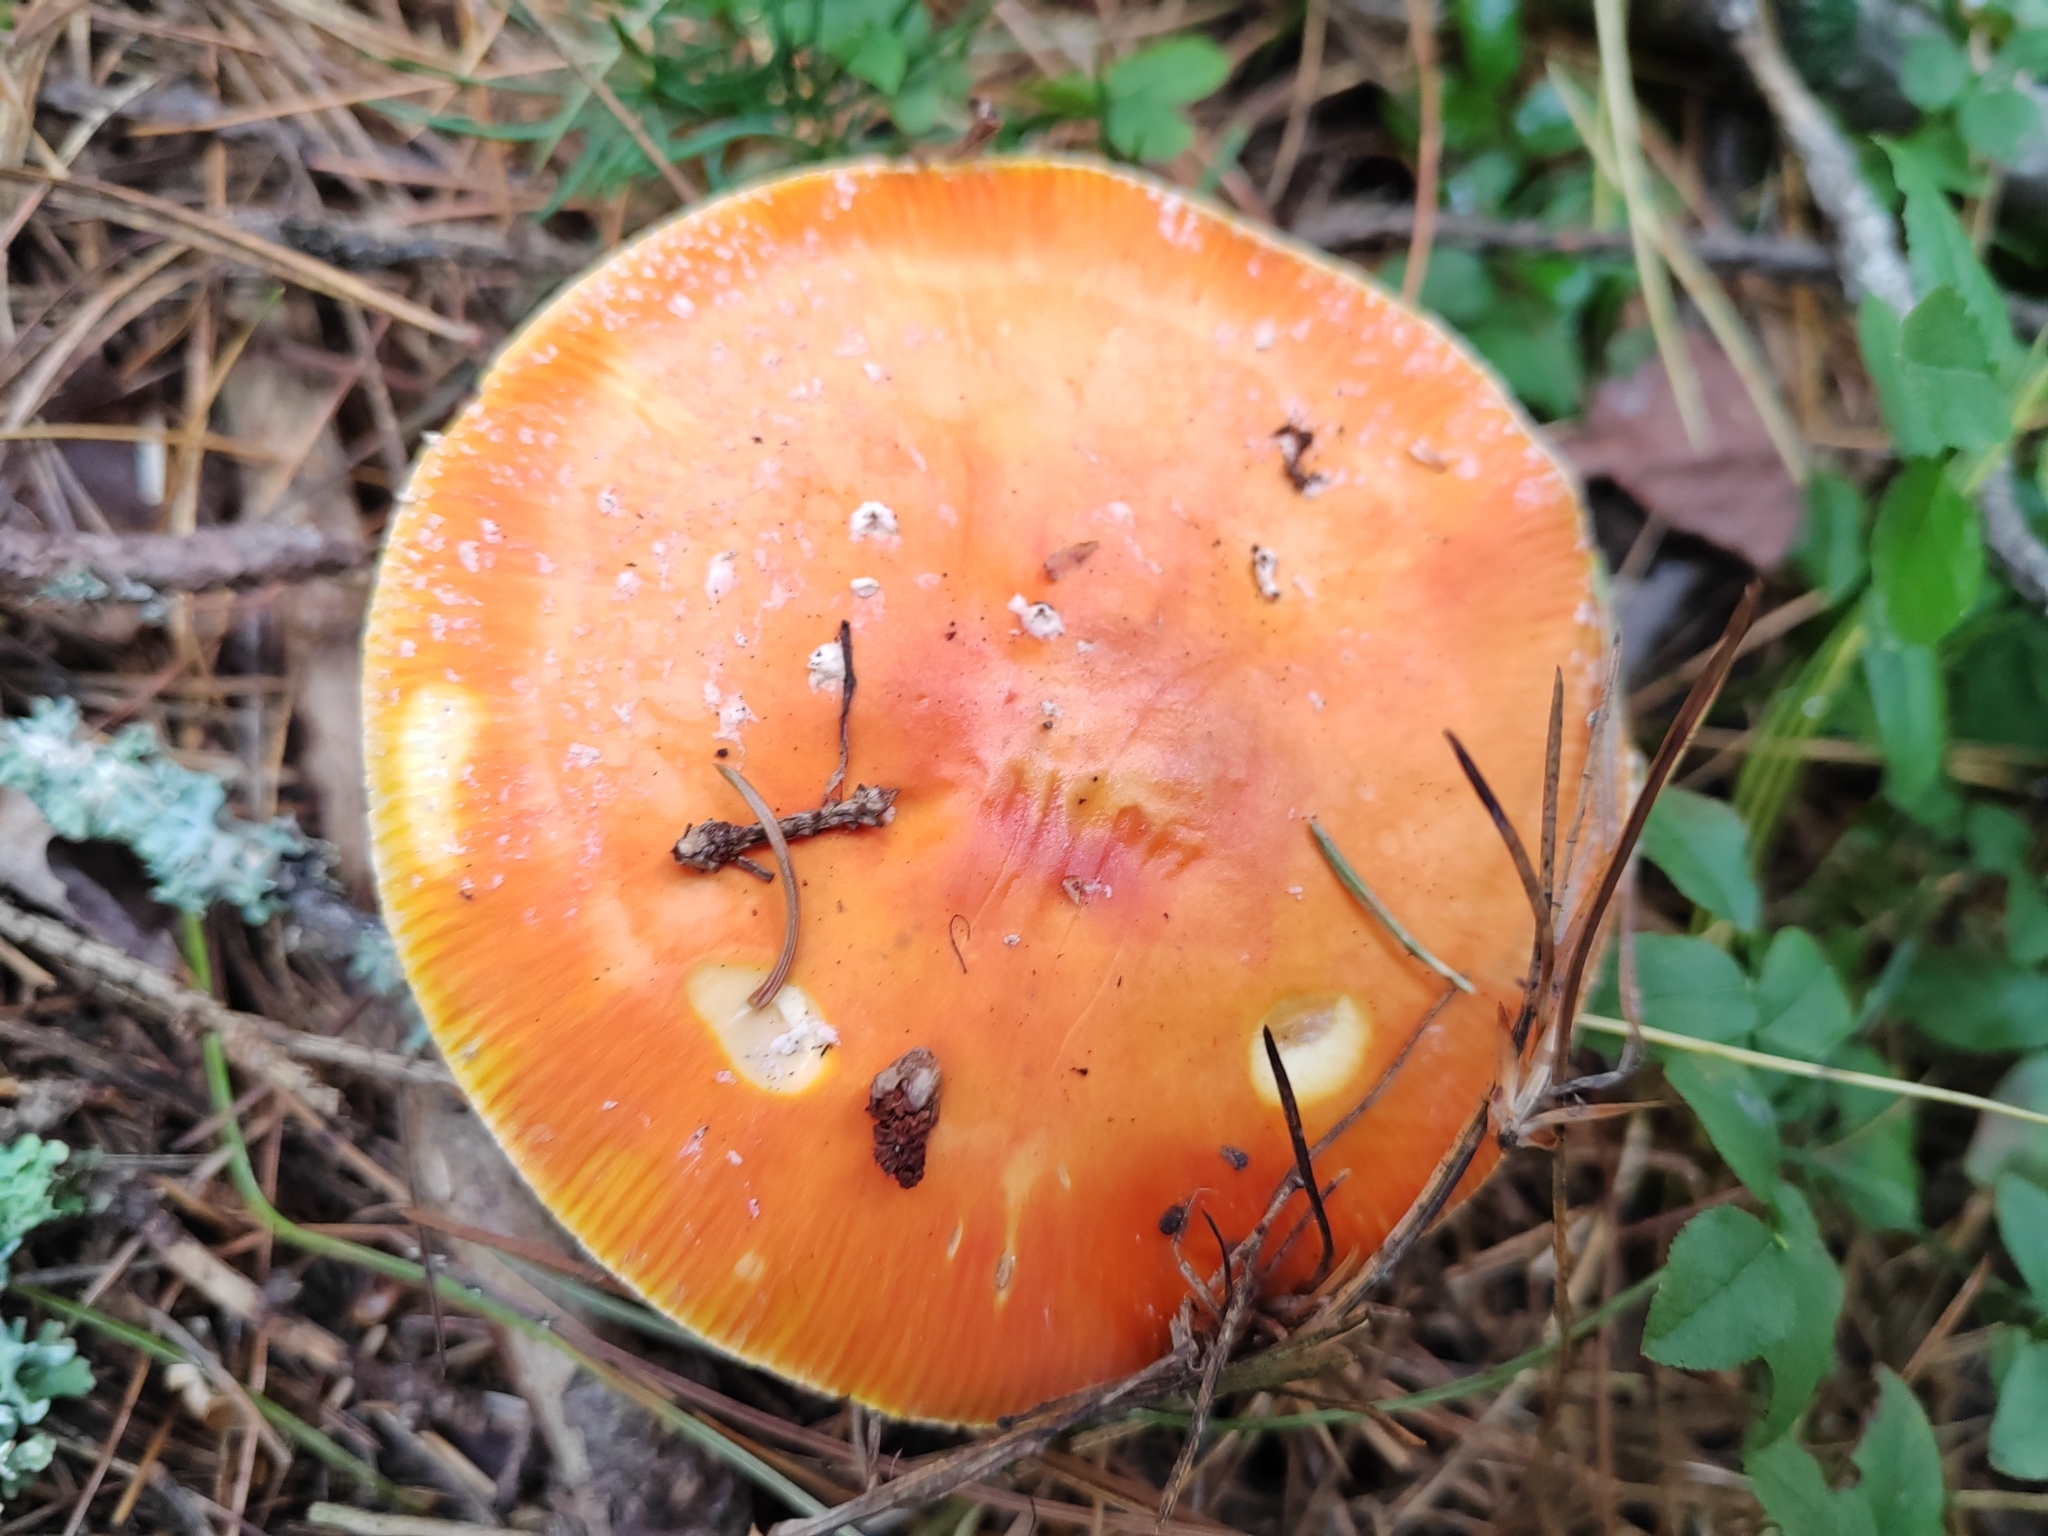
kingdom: Fungi
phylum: Basidiomycota
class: Agaricomycetes
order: Agaricales
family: Amanitaceae
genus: Amanita
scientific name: Amanita muscaria
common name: Fly agaric
